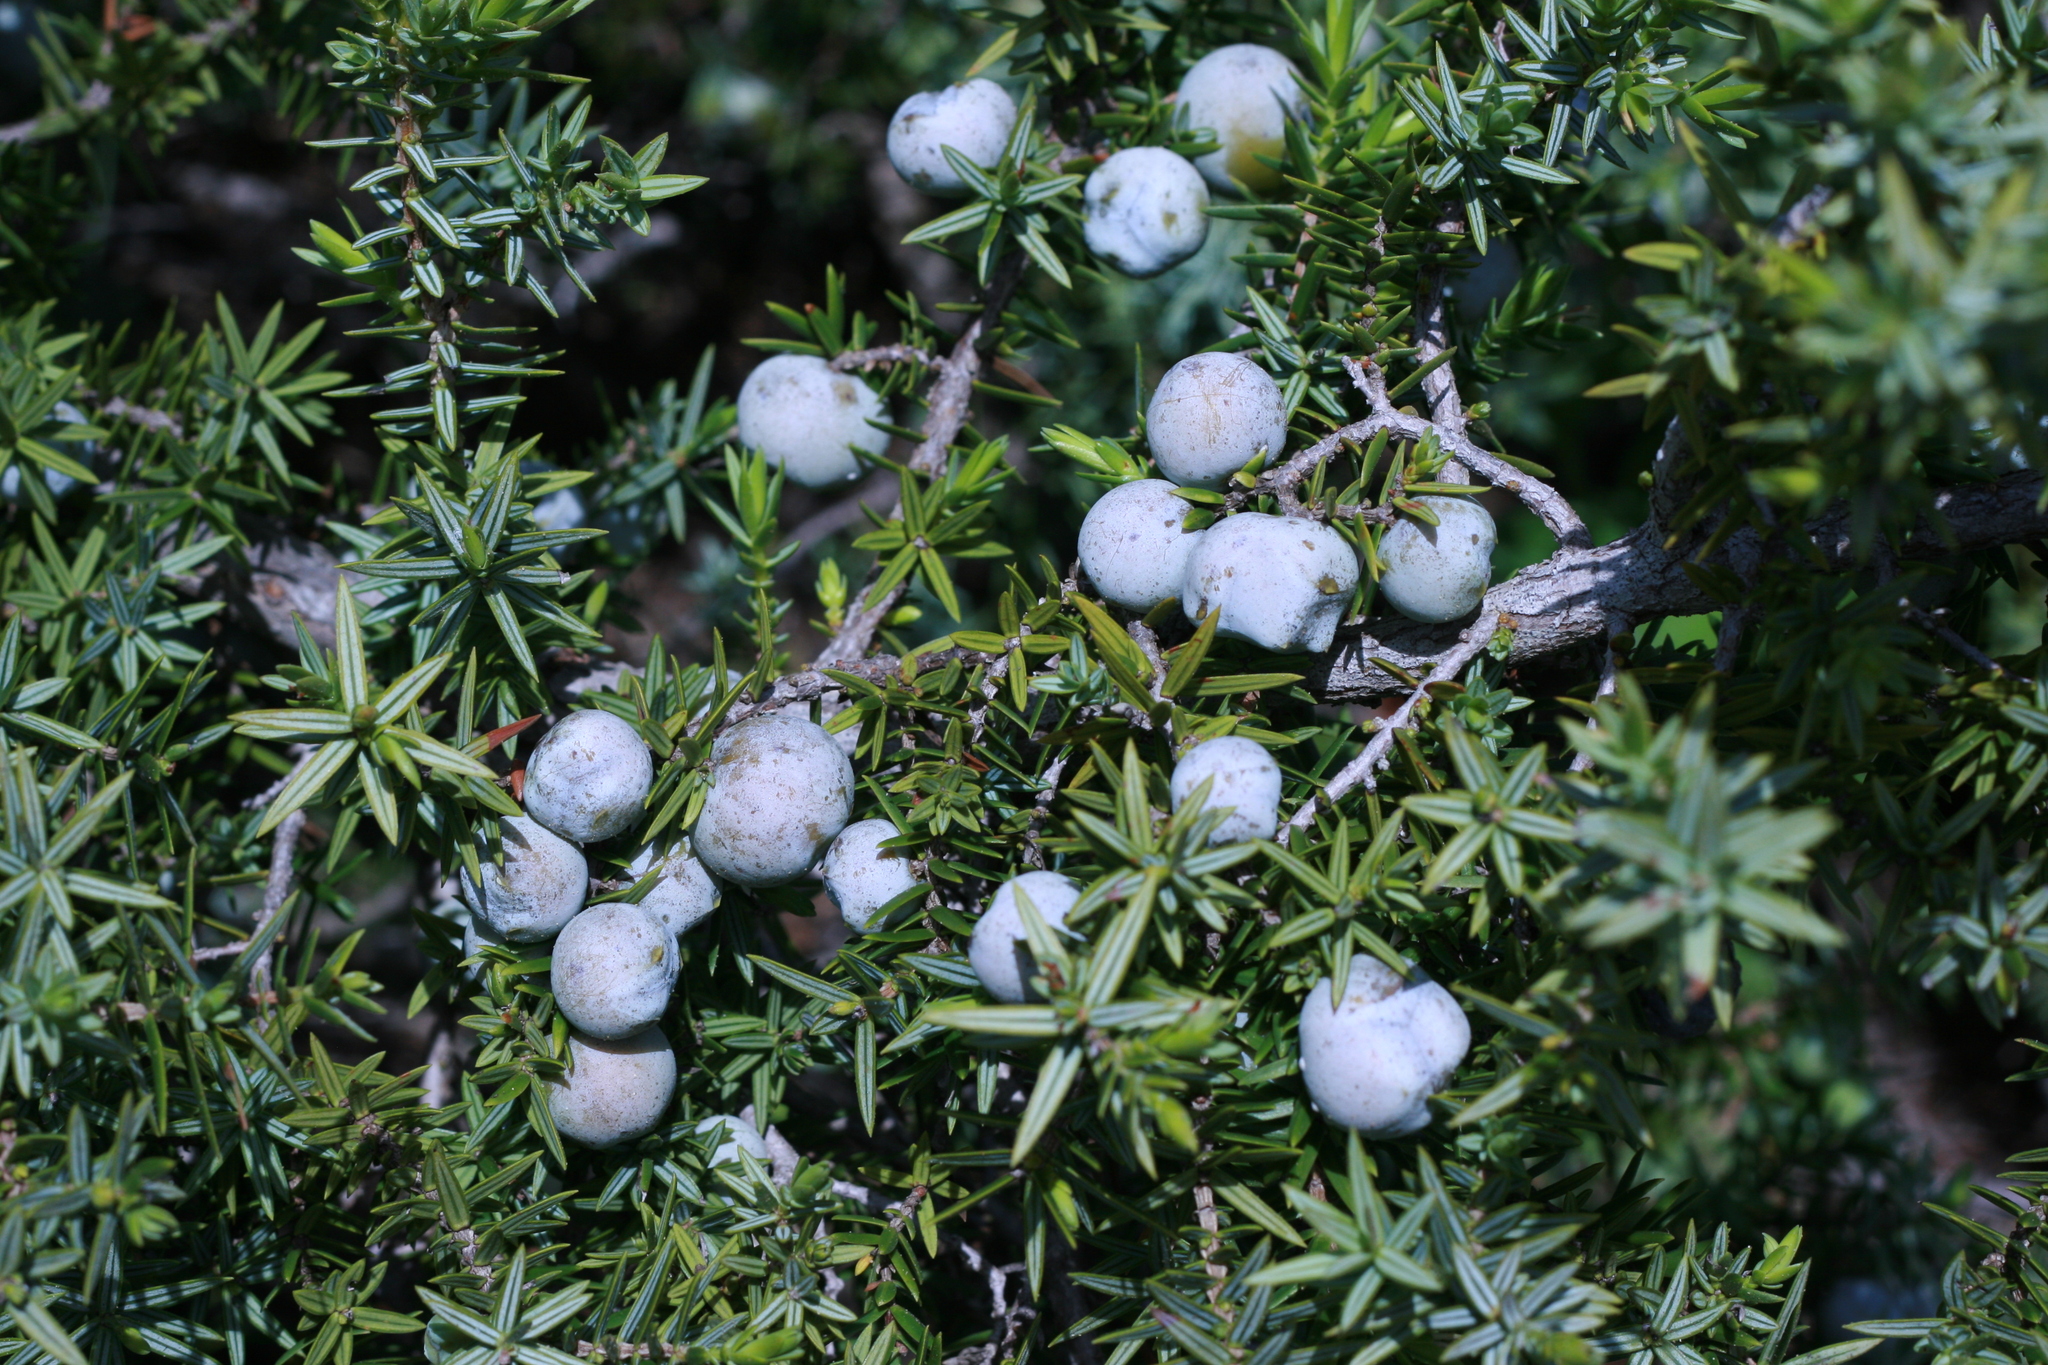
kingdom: Plantae
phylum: Tracheophyta
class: Pinopsida
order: Pinales
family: Cupressaceae
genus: Juniperus
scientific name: Juniperus oxycedrus
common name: Prickly juniper
